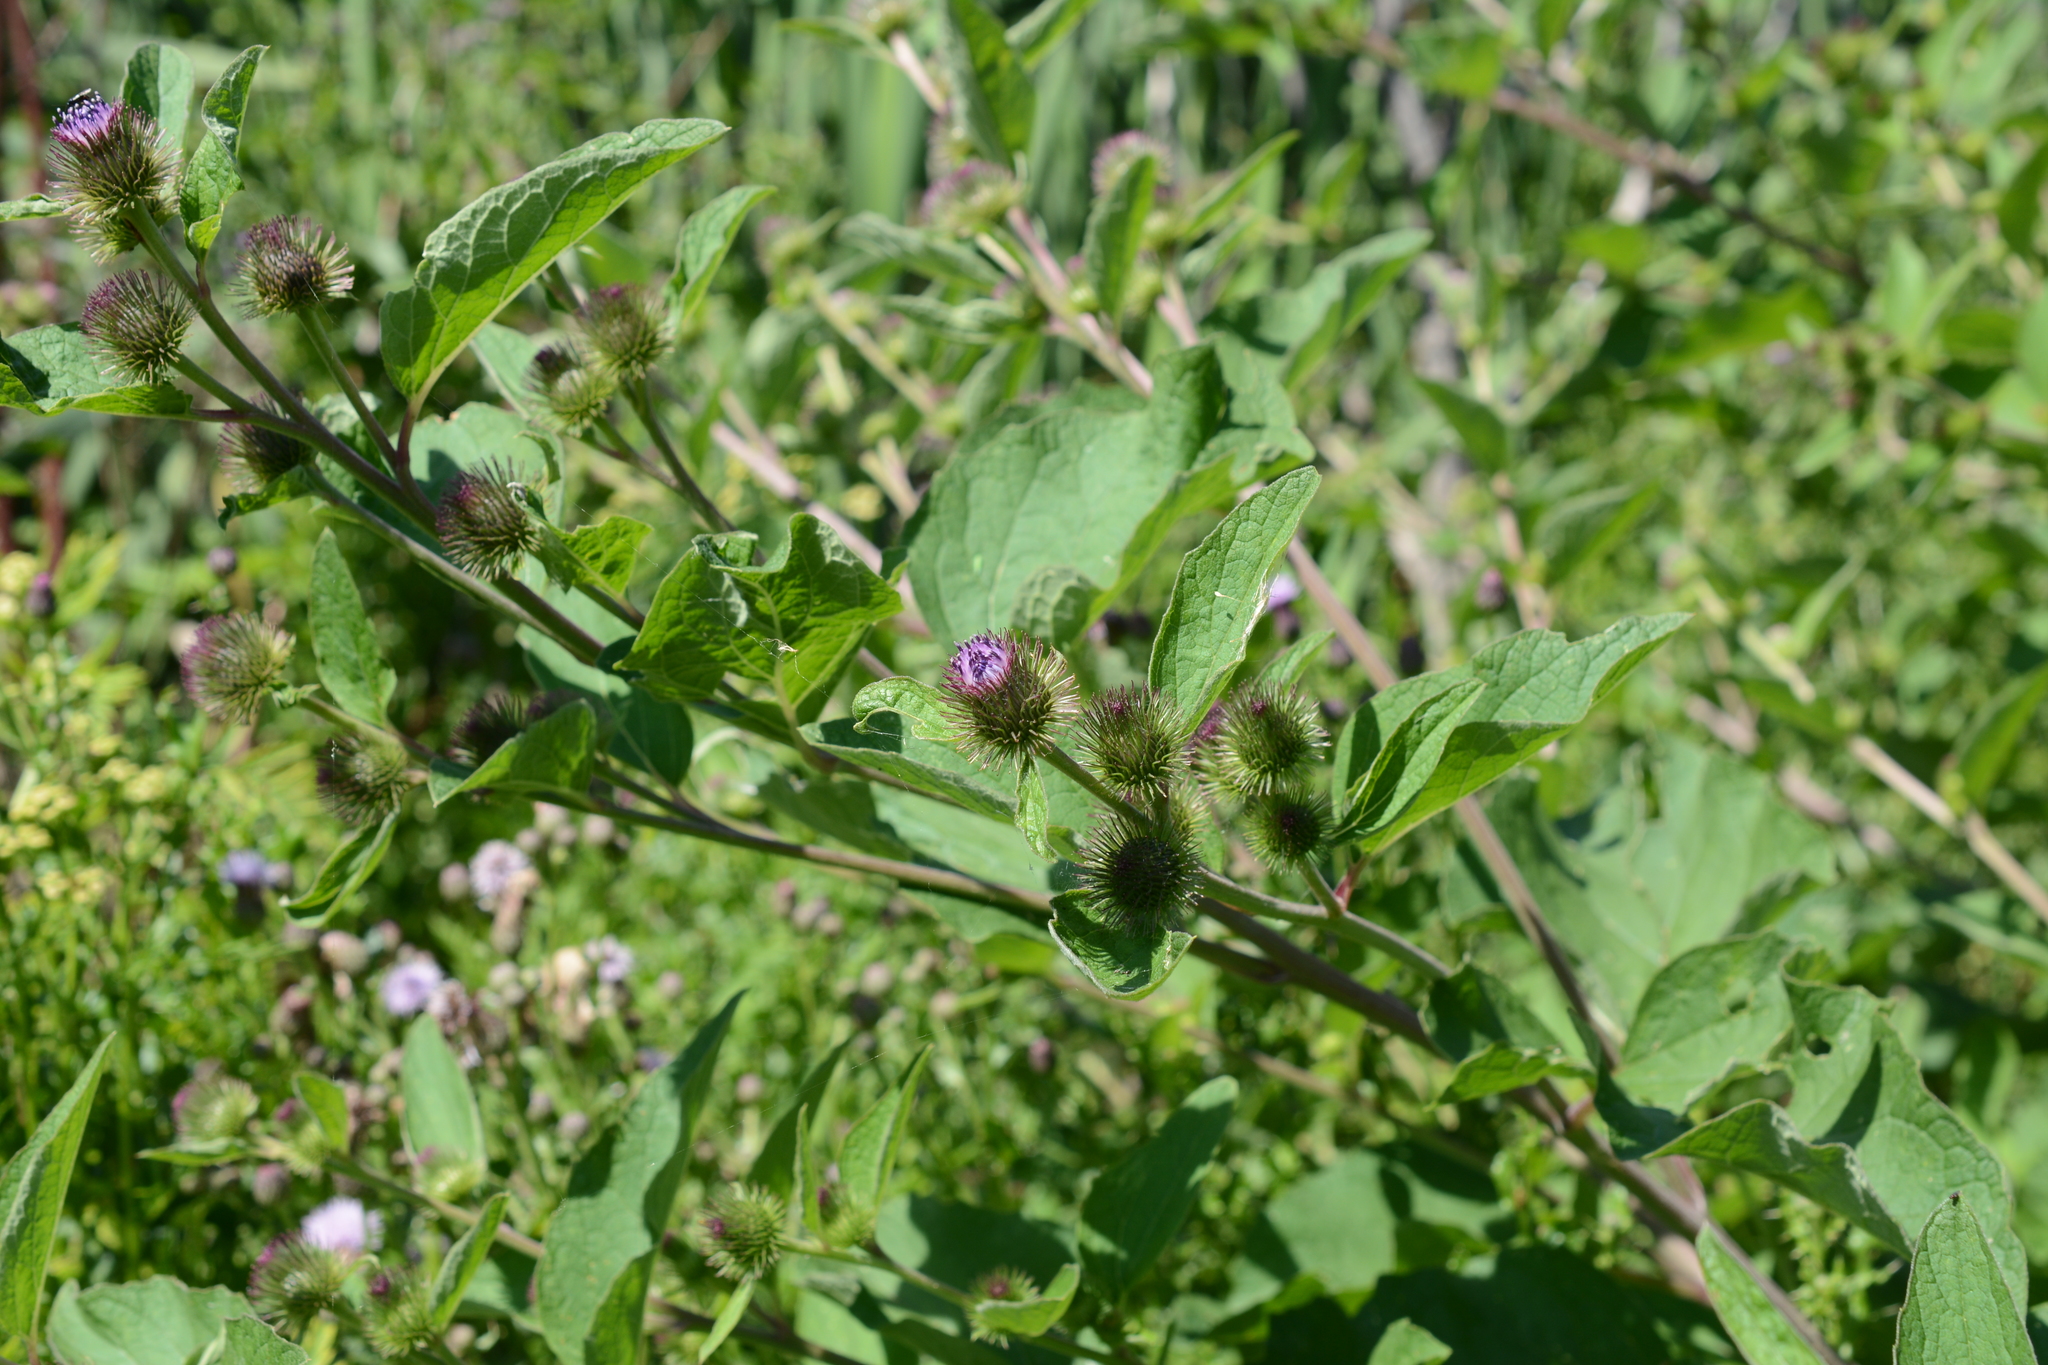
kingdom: Plantae
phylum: Tracheophyta
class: Magnoliopsida
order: Asterales
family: Asteraceae
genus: Arctium
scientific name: Arctium minus
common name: Lesser burdock
